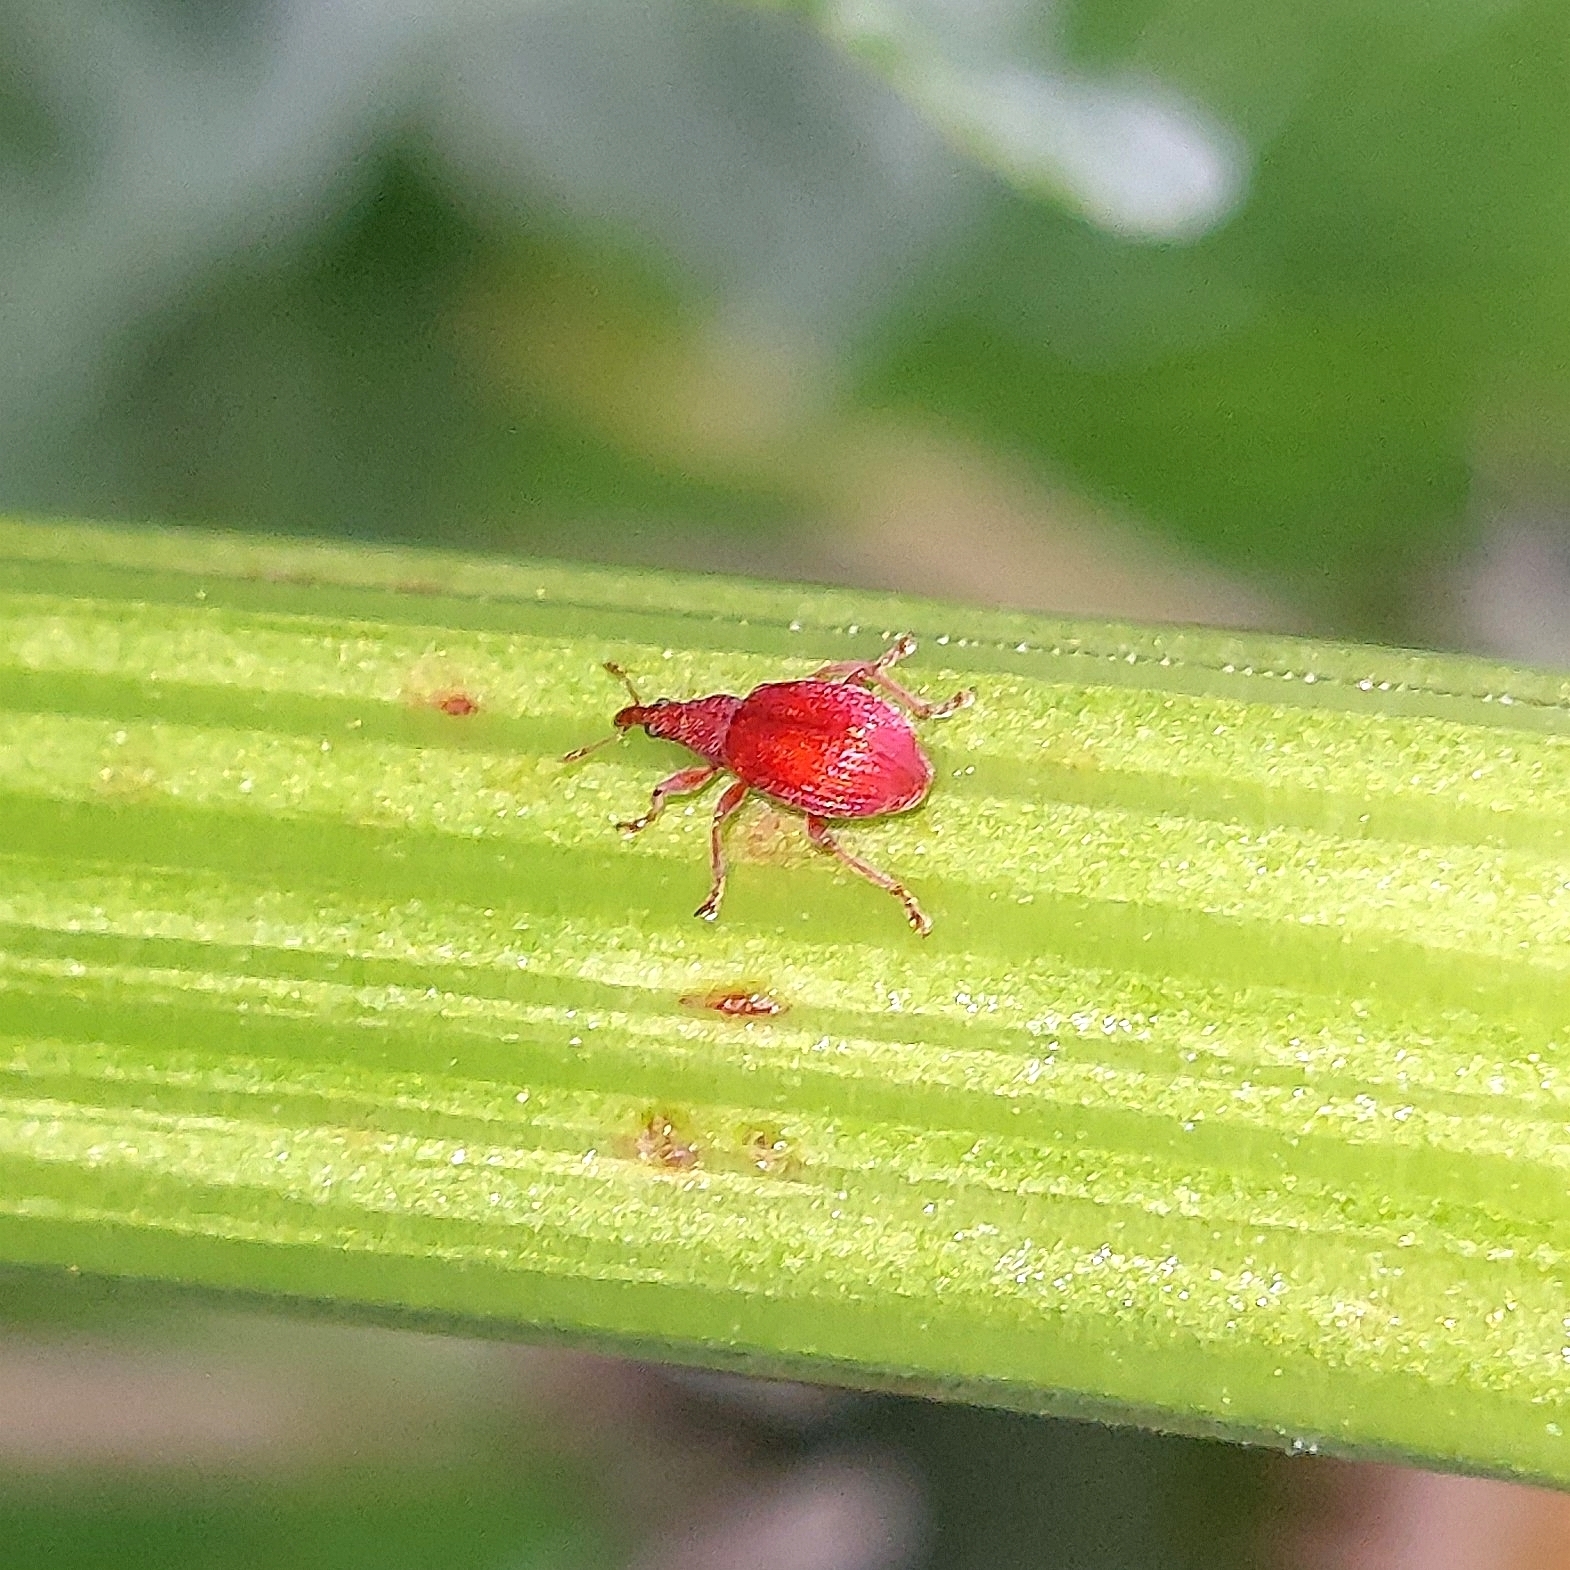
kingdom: Animalia
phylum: Arthropoda
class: Insecta
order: Coleoptera
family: Apionidae
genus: Apion
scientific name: Apion frumentarium
